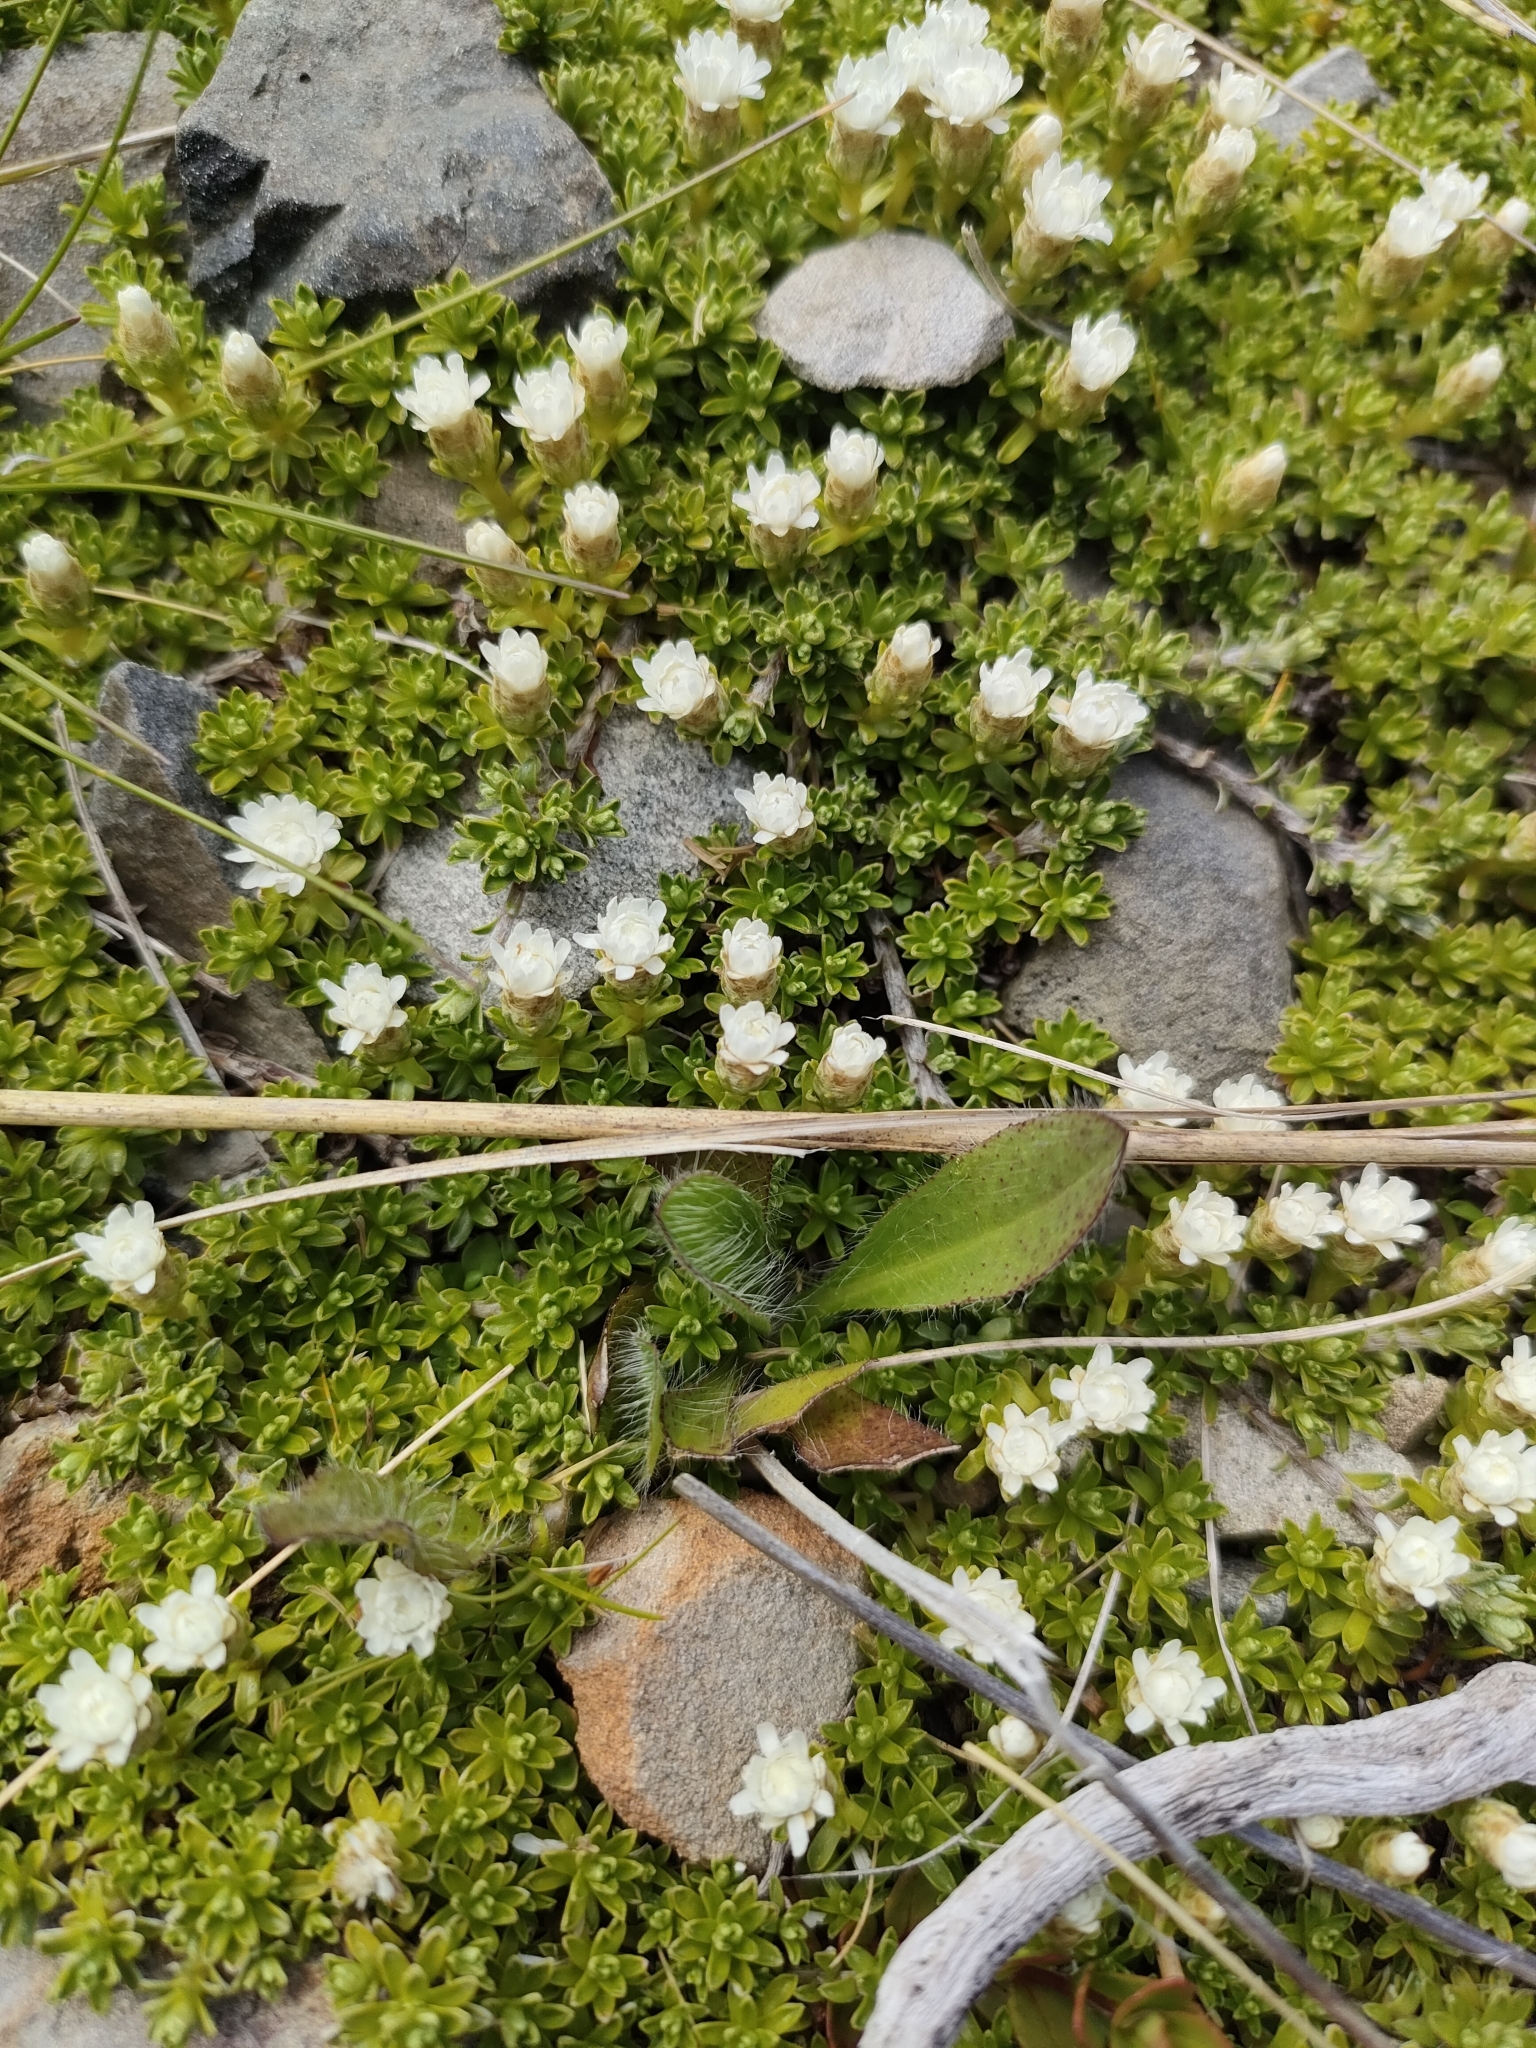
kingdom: Plantae
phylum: Tracheophyta
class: Magnoliopsida
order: Asterales
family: Asteraceae
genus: Raoulia
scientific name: Raoulia subsericea
